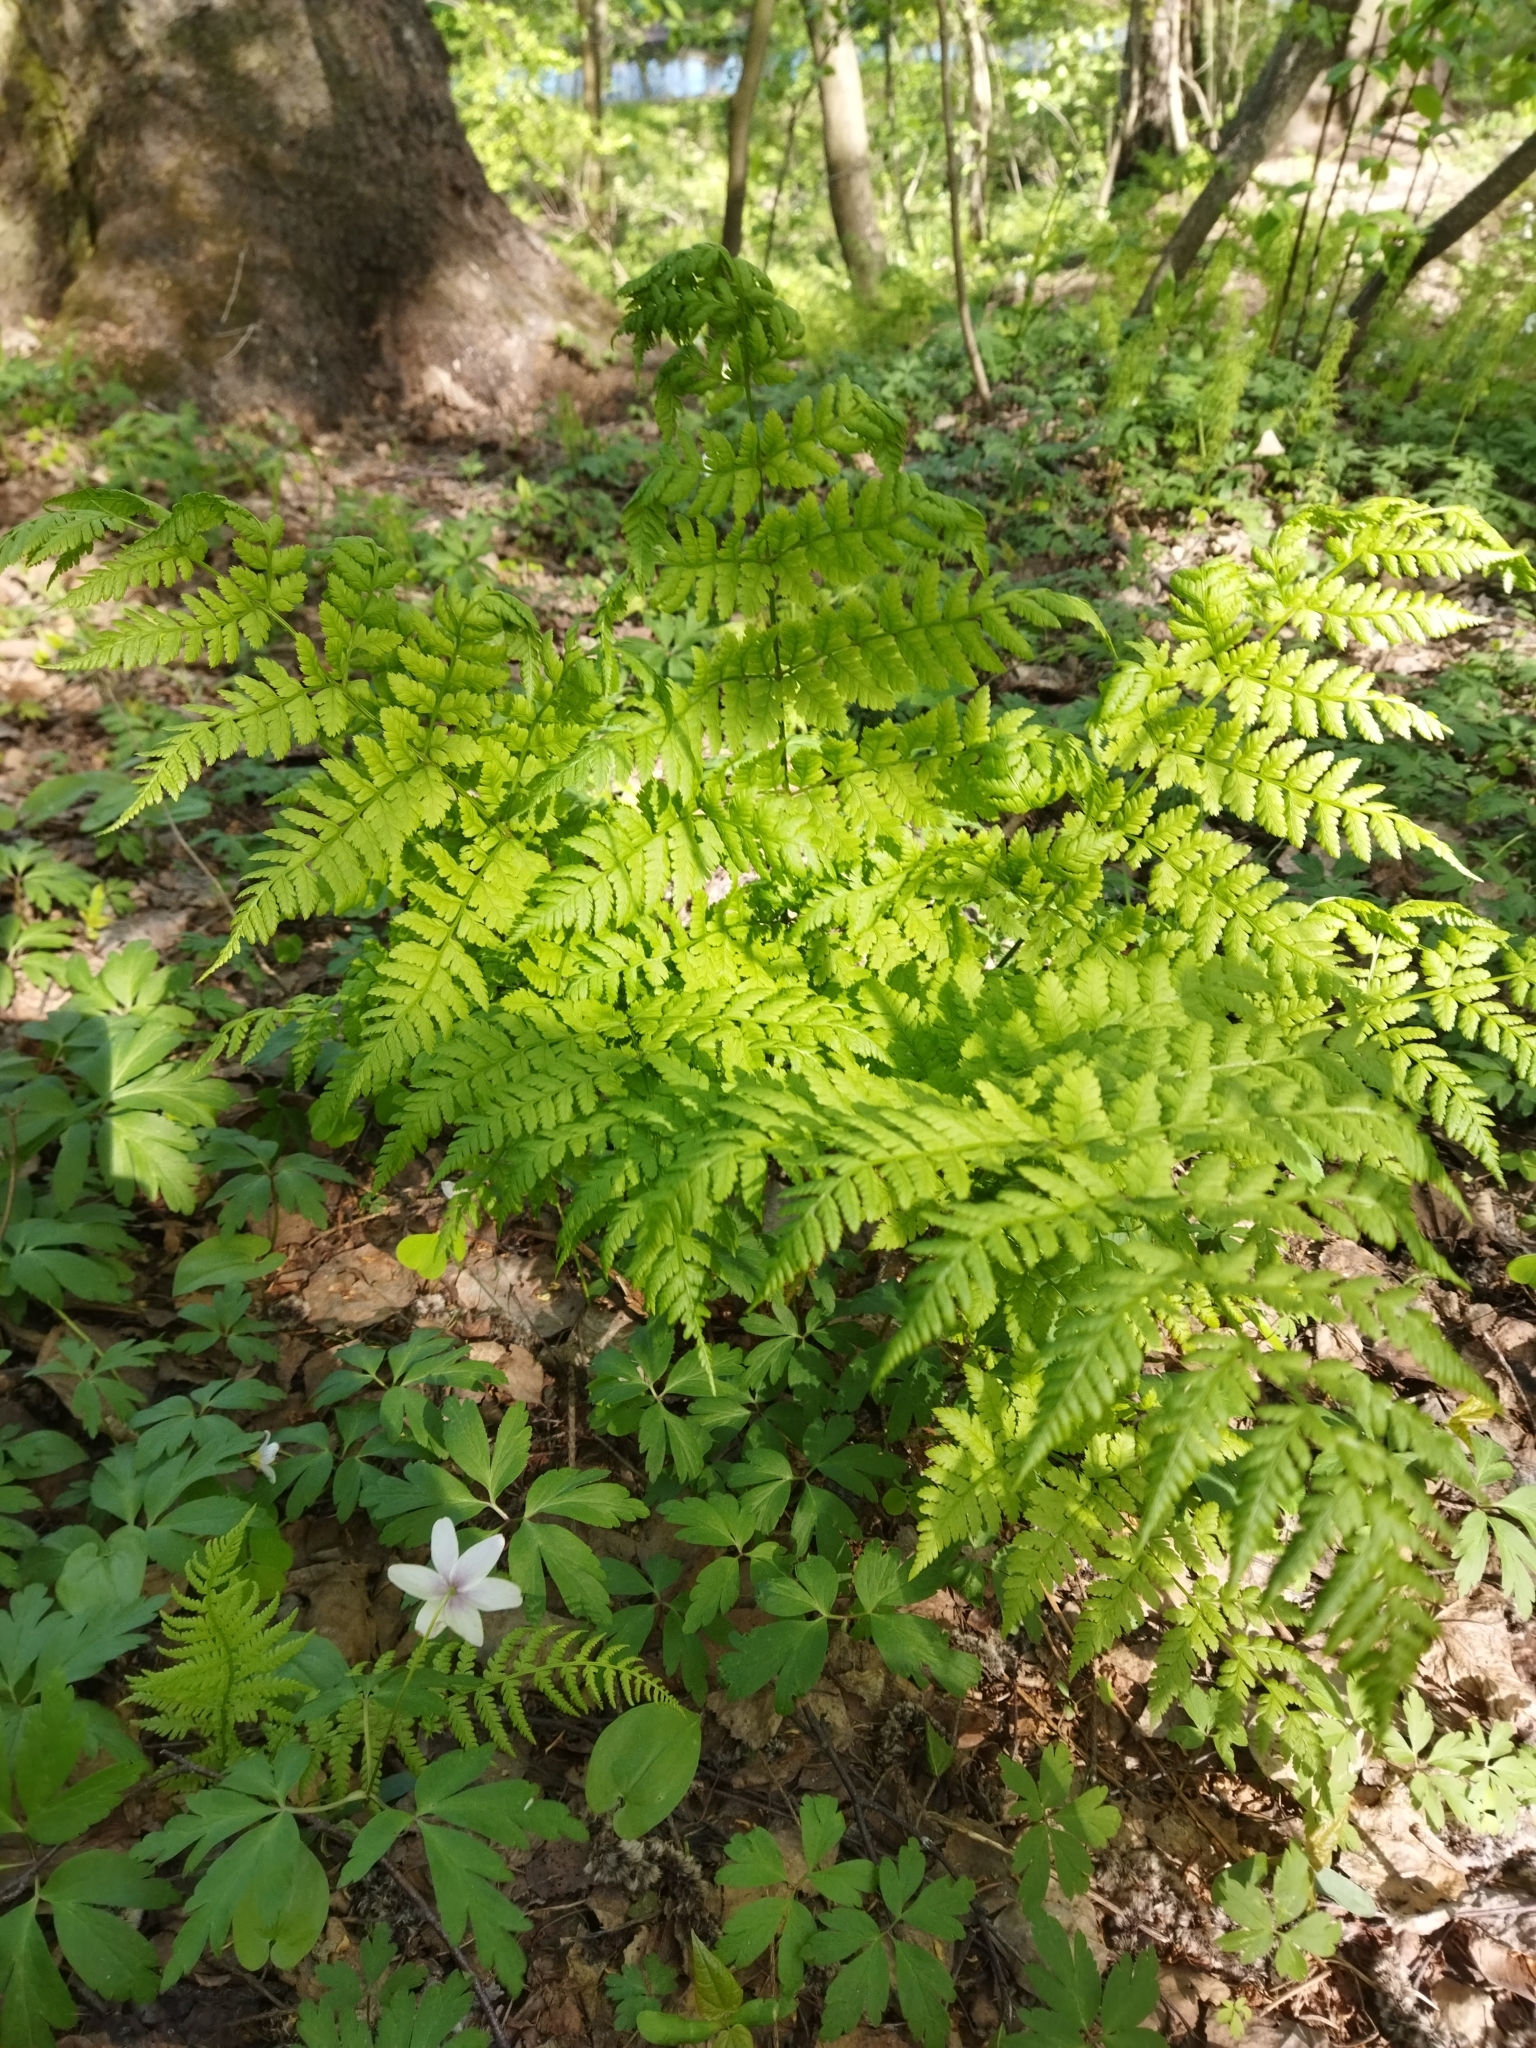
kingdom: Plantae
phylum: Tracheophyta
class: Polypodiopsida
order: Polypodiales
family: Dryopteridaceae
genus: Dryopteris
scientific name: Dryopteris carthusiana
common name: Narrow buckler-fern
